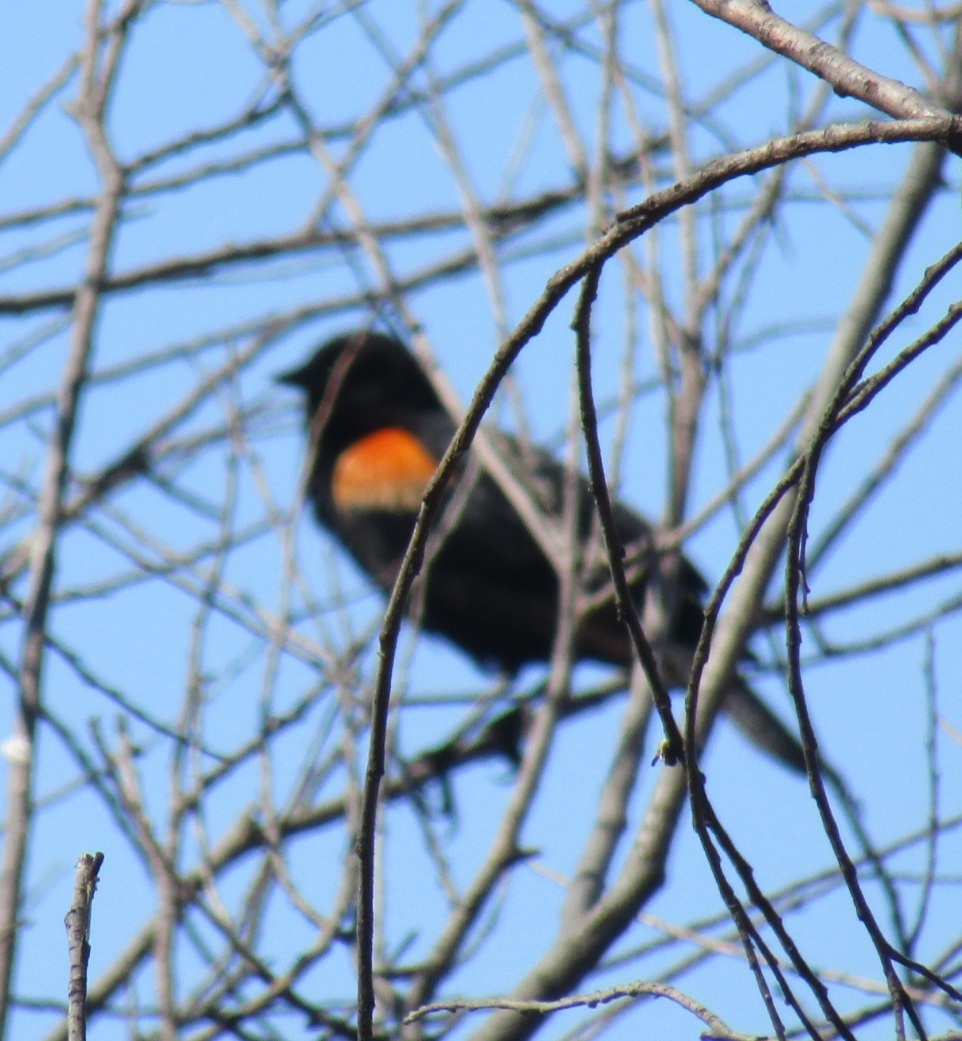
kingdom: Animalia
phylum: Chordata
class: Aves
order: Passeriformes
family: Icteridae
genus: Agelaius
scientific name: Agelaius phoeniceus
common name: Red-winged blackbird
